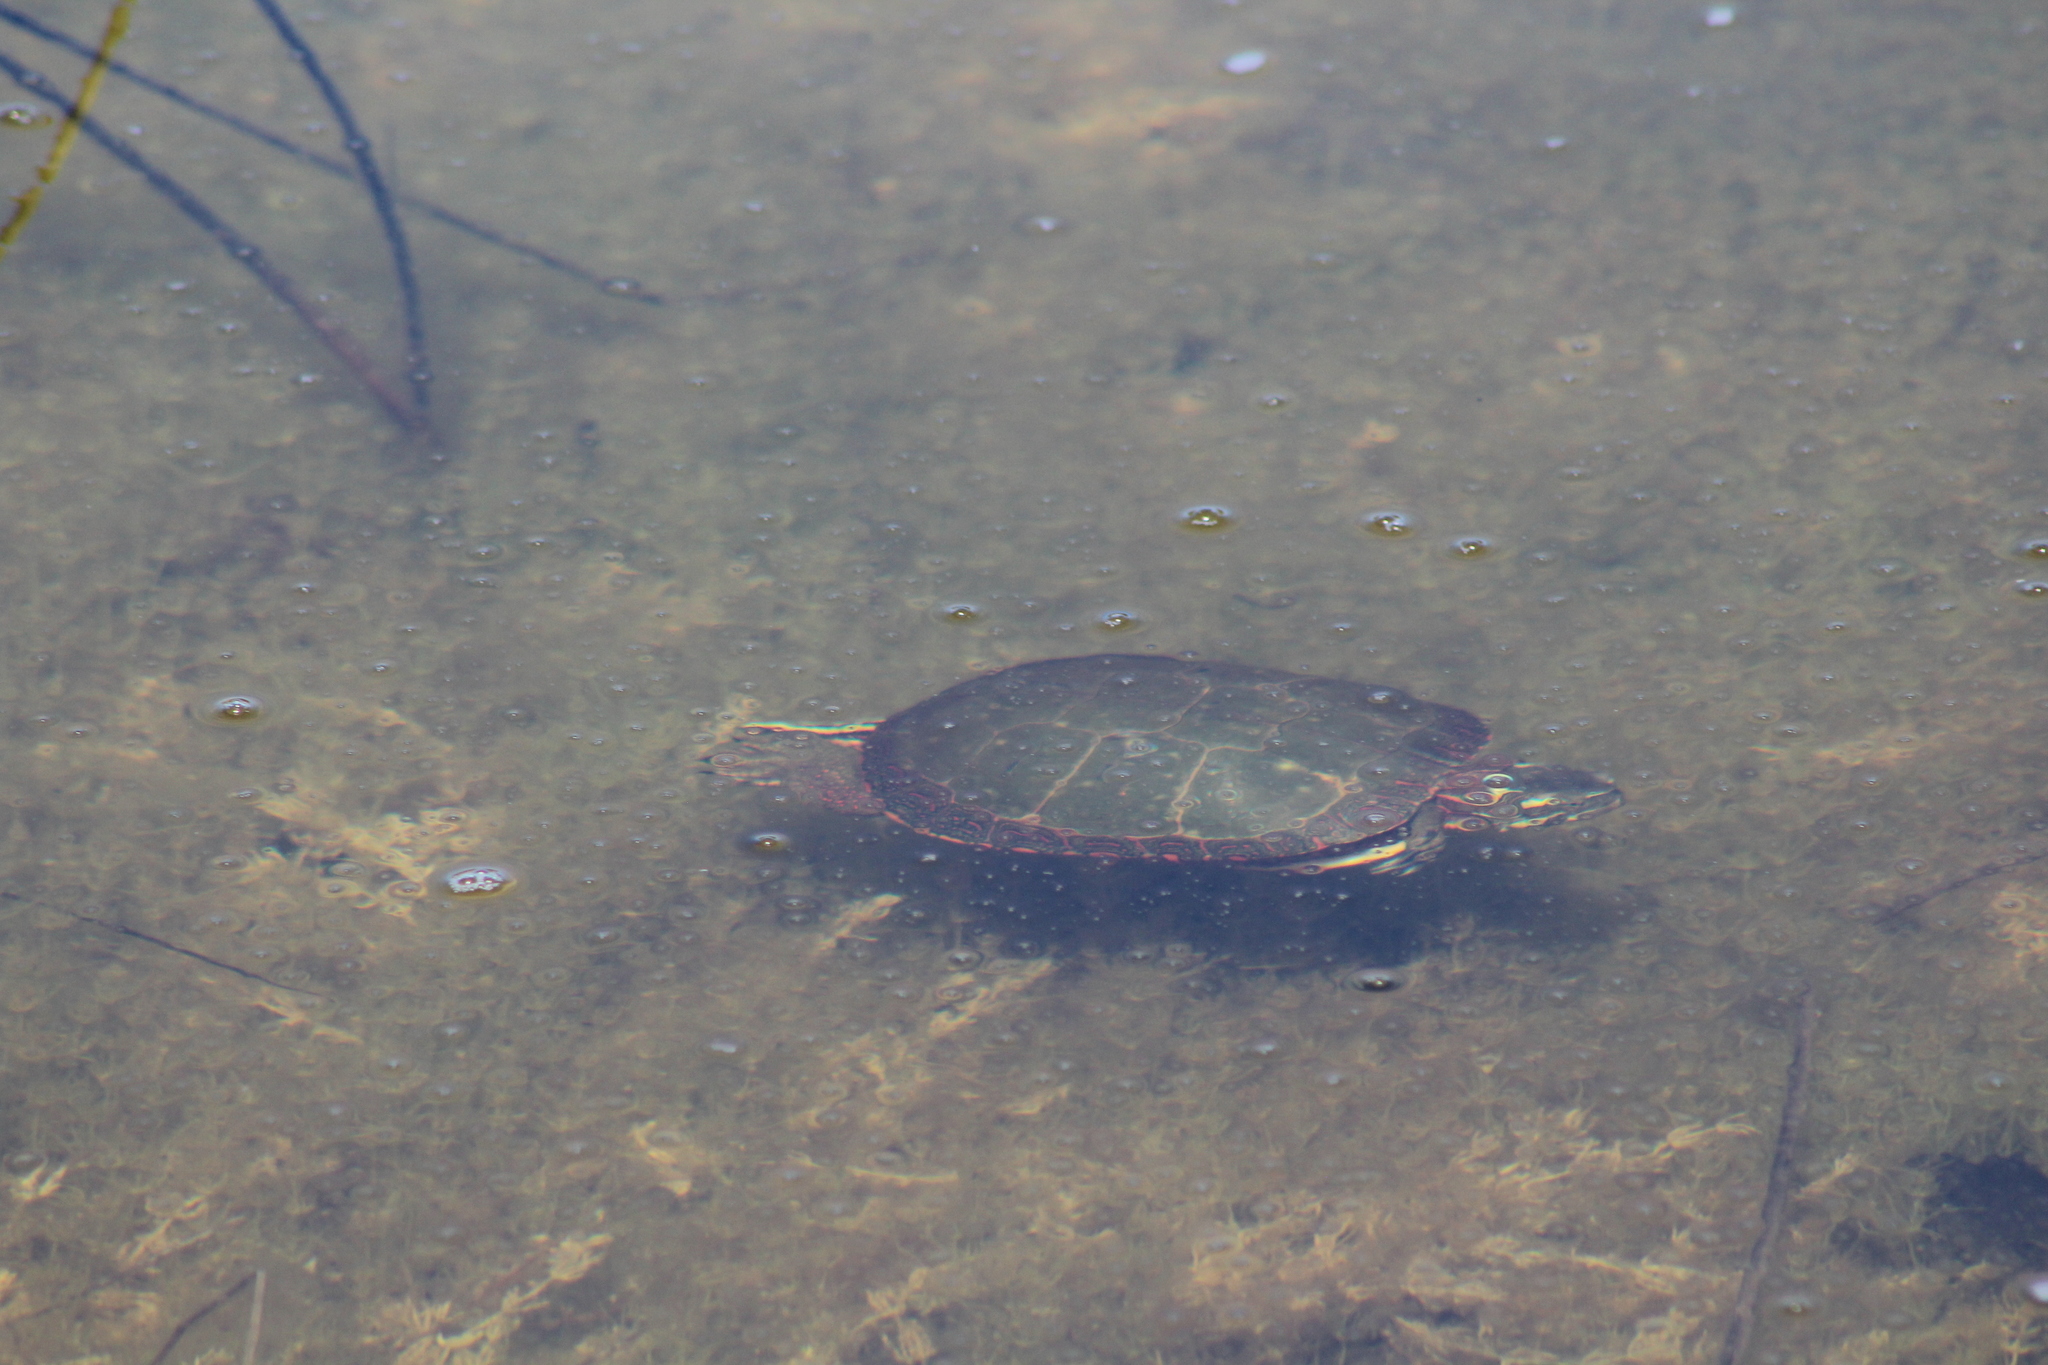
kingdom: Animalia
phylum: Chordata
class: Testudines
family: Emydidae
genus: Chrysemys
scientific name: Chrysemys picta
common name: Painted turtle
